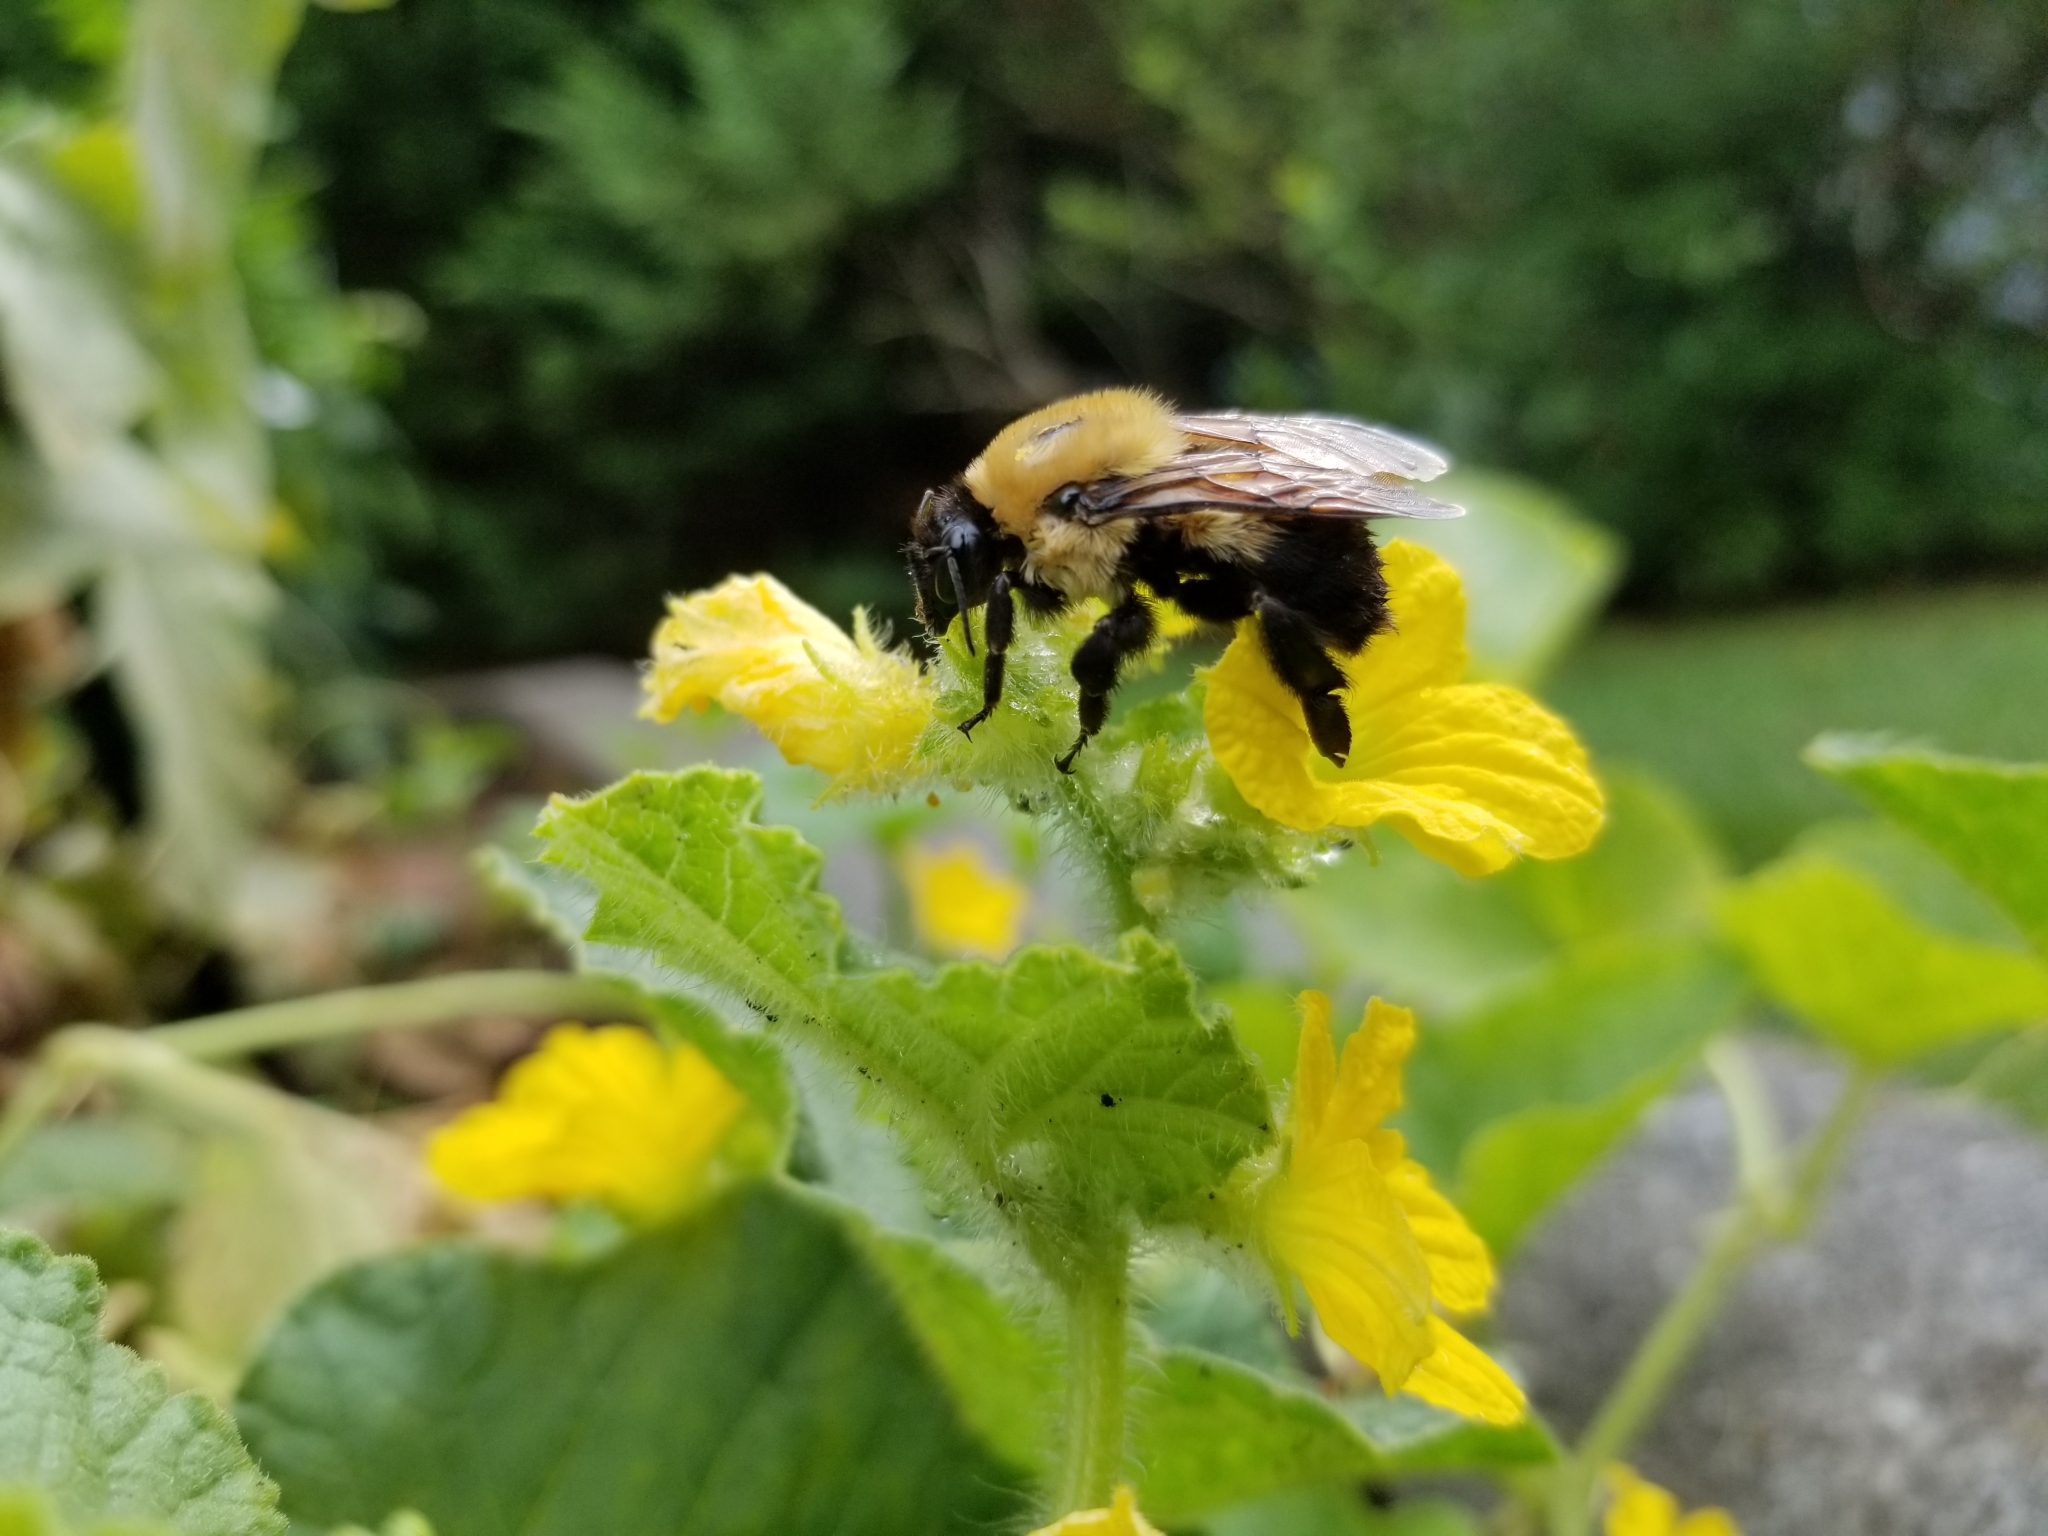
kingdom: Animalia
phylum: Arthropoda
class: Insecta
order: Hymenoptera
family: Apidae
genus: Bombus
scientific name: Bombus griseocollis
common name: Brown-belted bumble bee
